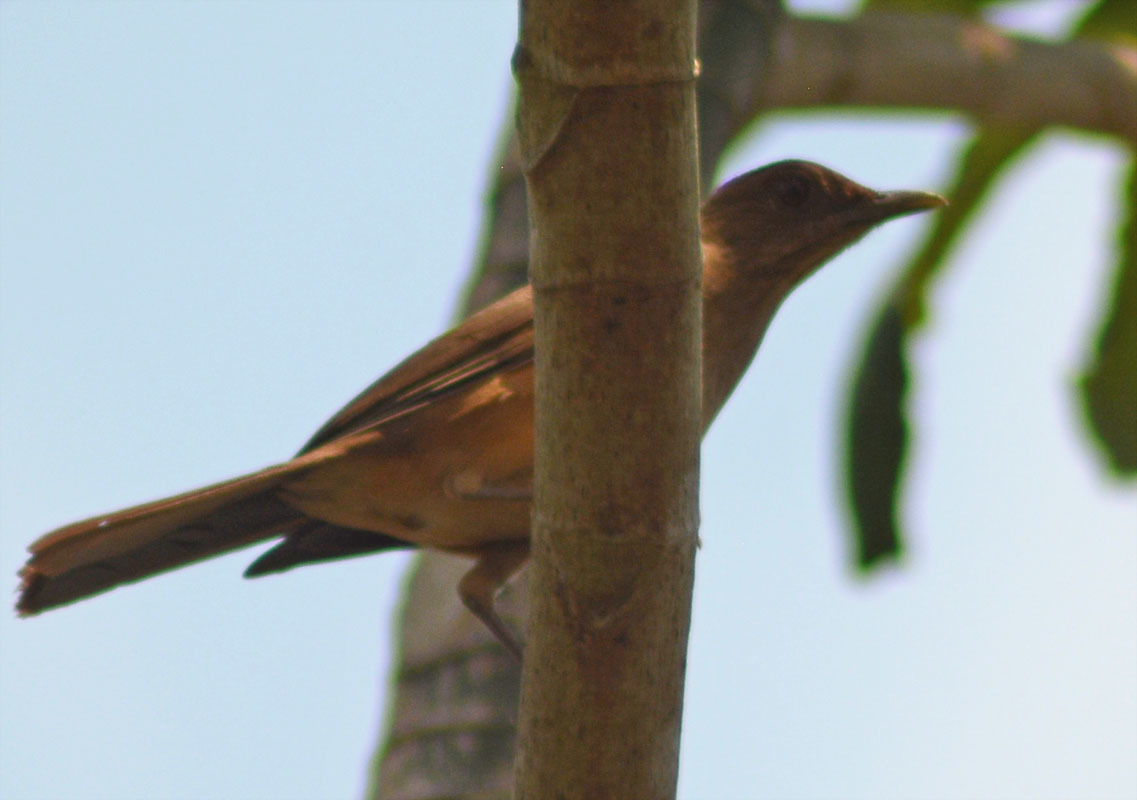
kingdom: Animalia
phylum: Chordata
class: Aves
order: Passeriformes
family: Turdidae
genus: Turdus
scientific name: Turdus grayi
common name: Clay-colored thrush
